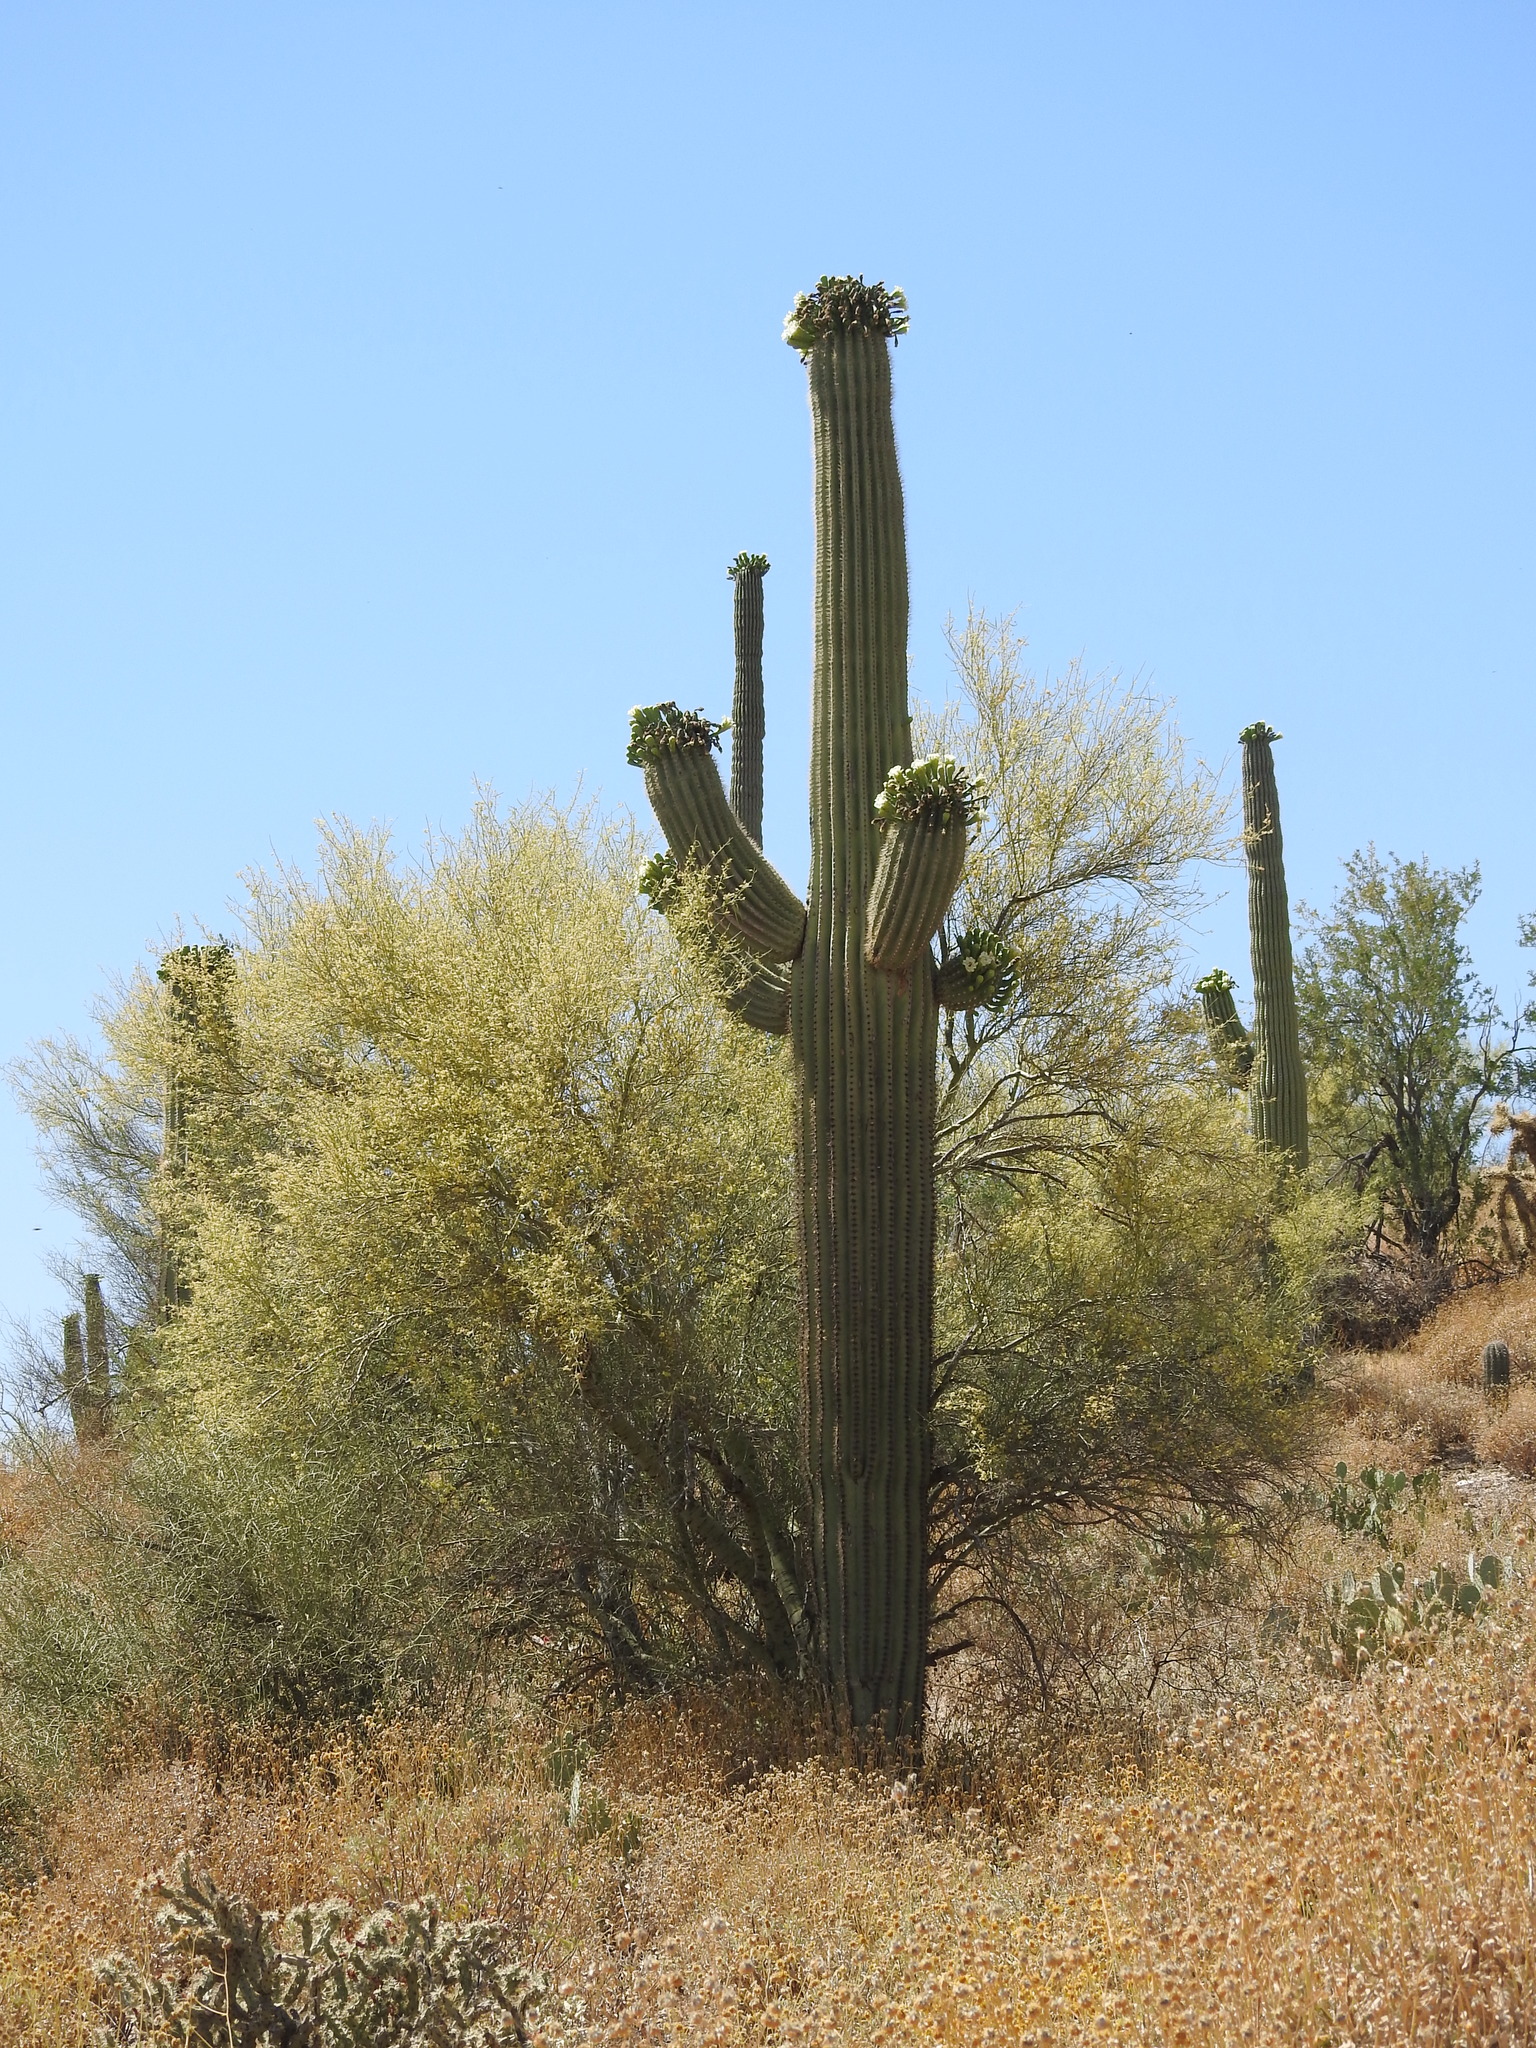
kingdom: Plantae
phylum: Tracheophyta
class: Magnoliopsida
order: Caryophyllales
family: Cactaceae
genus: Carnegiea
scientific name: Carnegiea gigantea
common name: Saguaro
